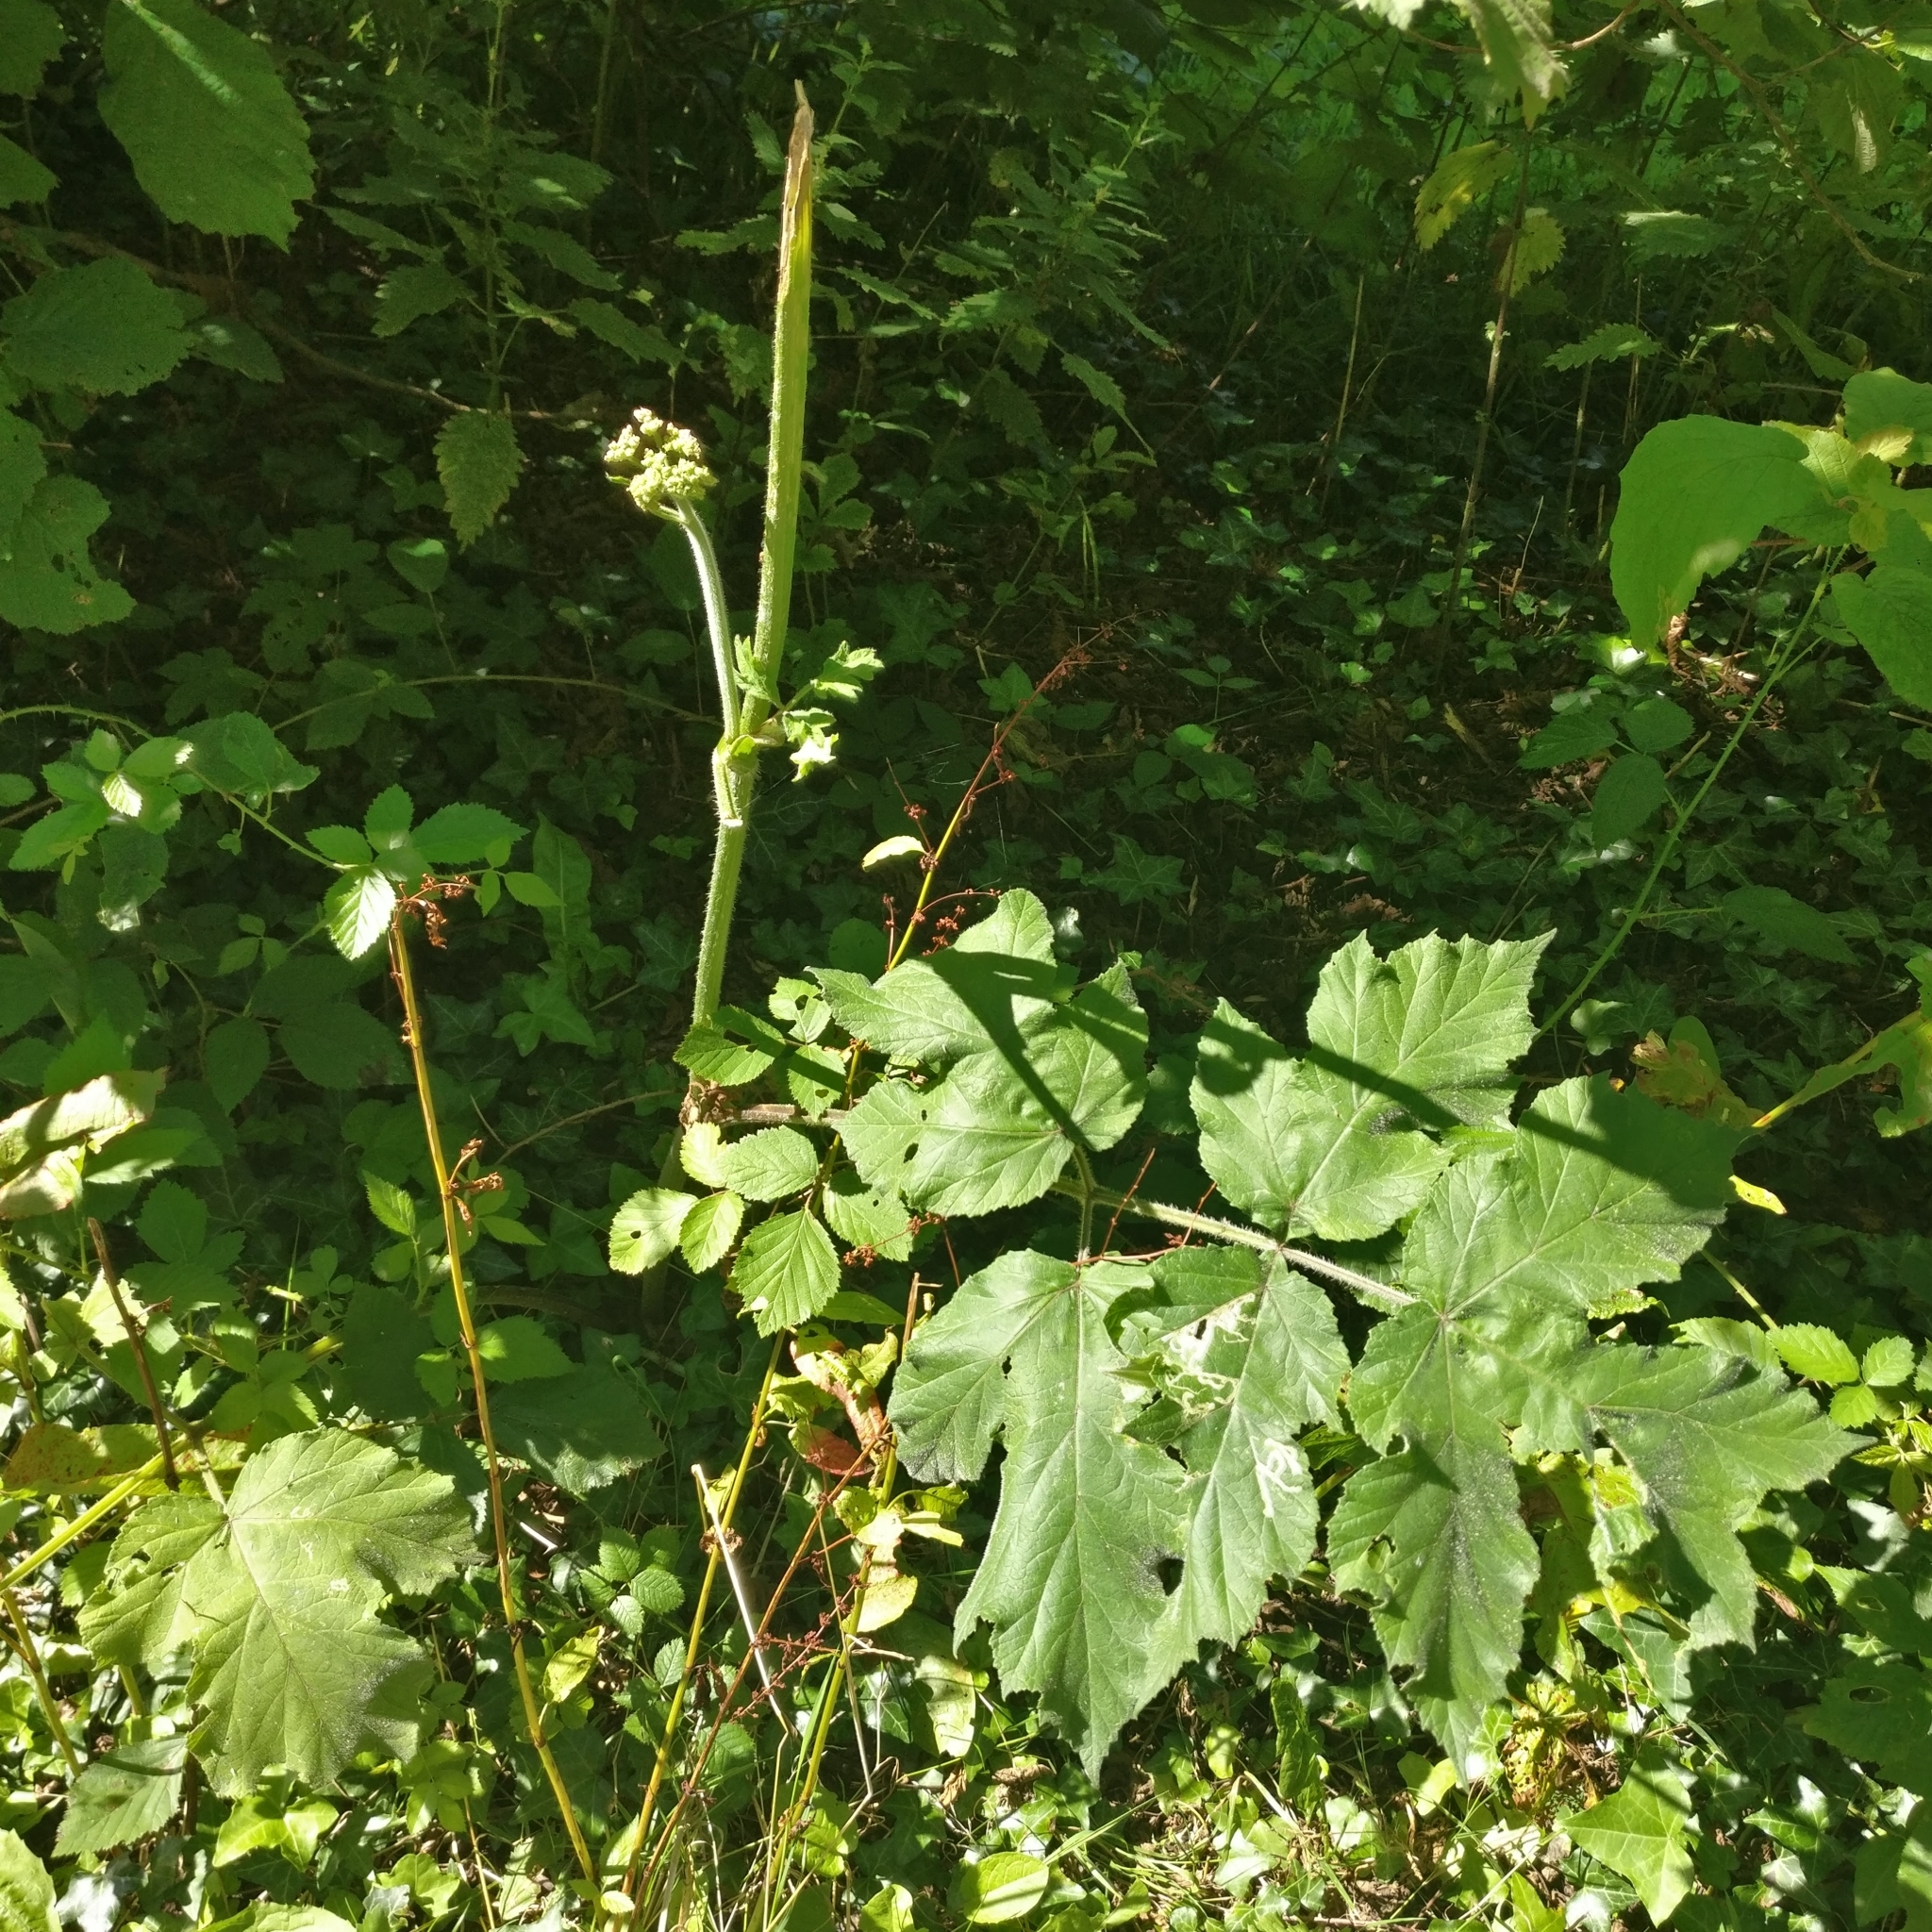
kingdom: Plantae
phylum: Tracheophyta
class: Magnoliopsida
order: Apiales
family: Apiaceae
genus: Heracleum
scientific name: Heracleum sphondylium
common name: Hogweed
